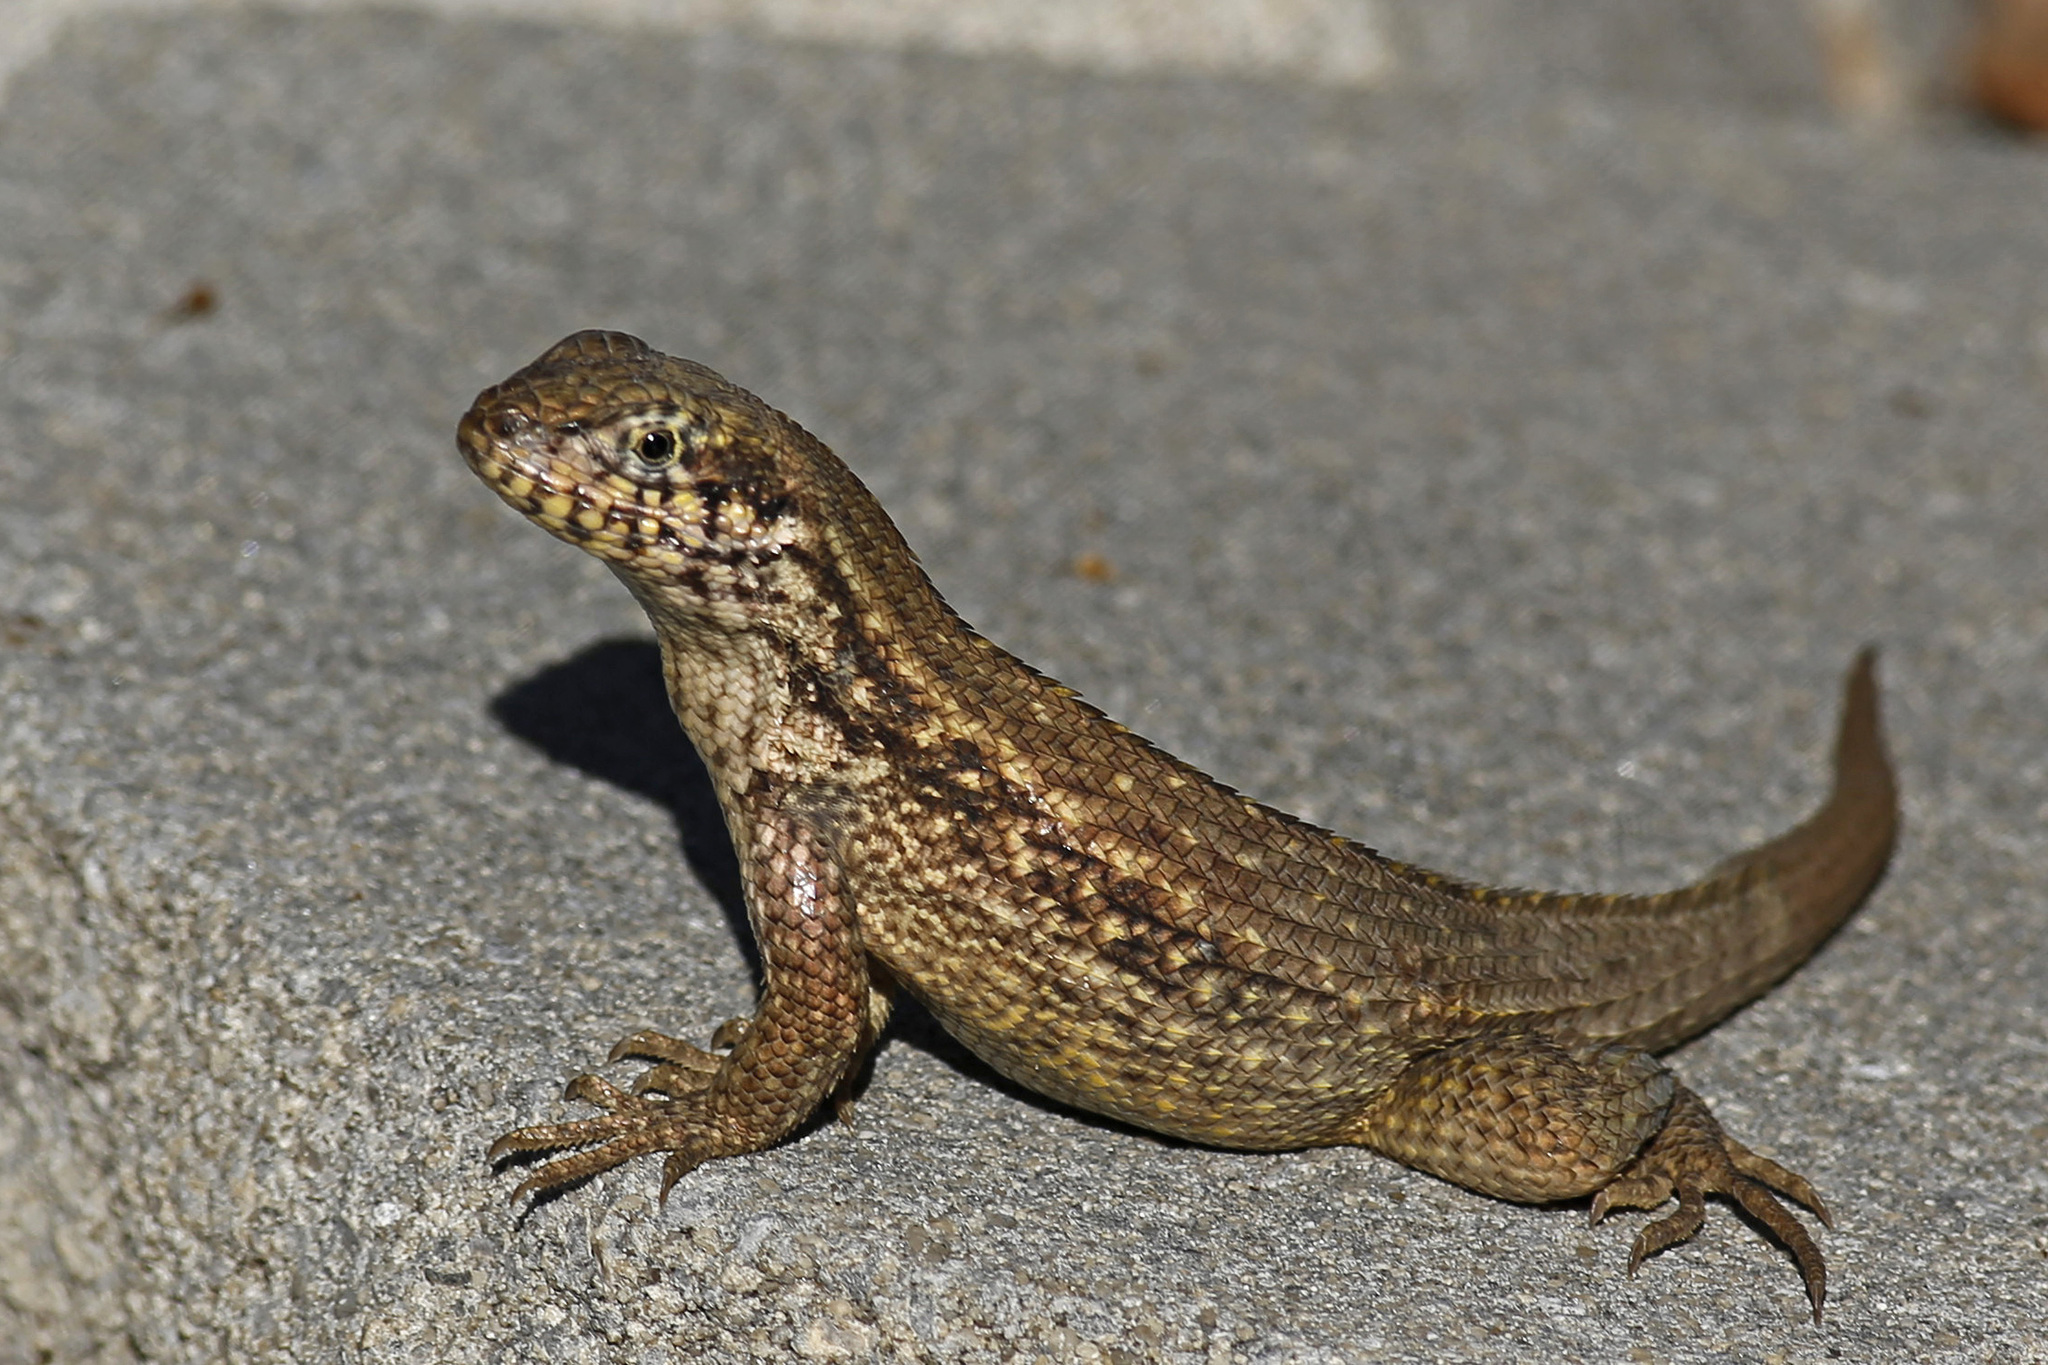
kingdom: Animalia
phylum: Chordata
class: Squamata
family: Leiocephalidae
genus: Leiocephalus
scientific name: Leiocephalus carinatus
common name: Northern curly-tailed lizard
